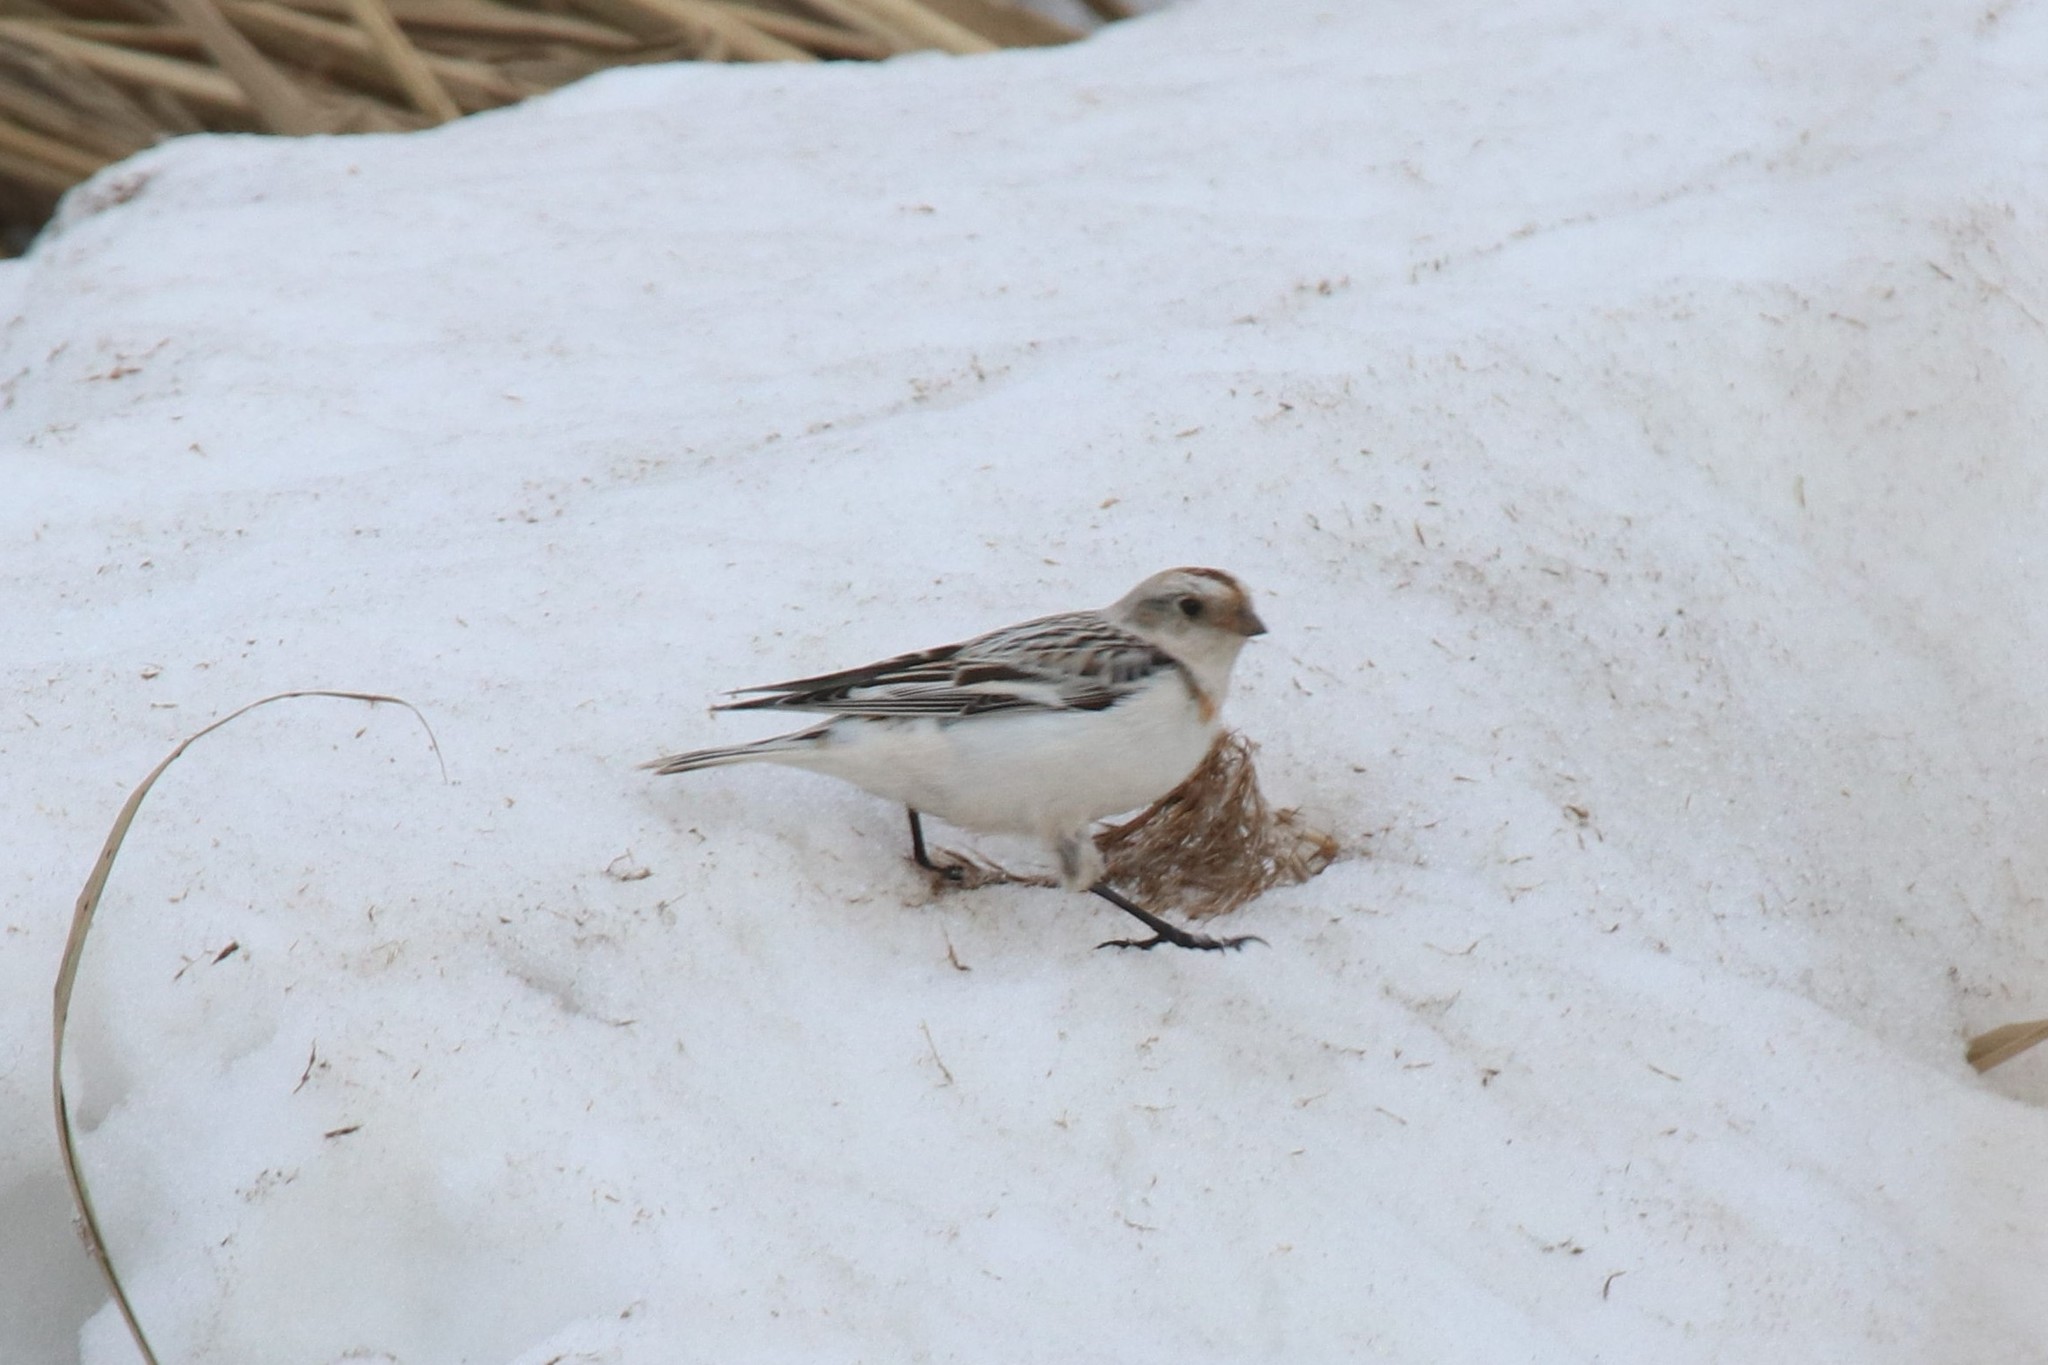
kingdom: Animalia
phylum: Chordata
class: Aves
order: Passeriformes
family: Calcariidae
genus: Plectrophenax
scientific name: Plectrophenax nivalis
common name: Snow bunting
